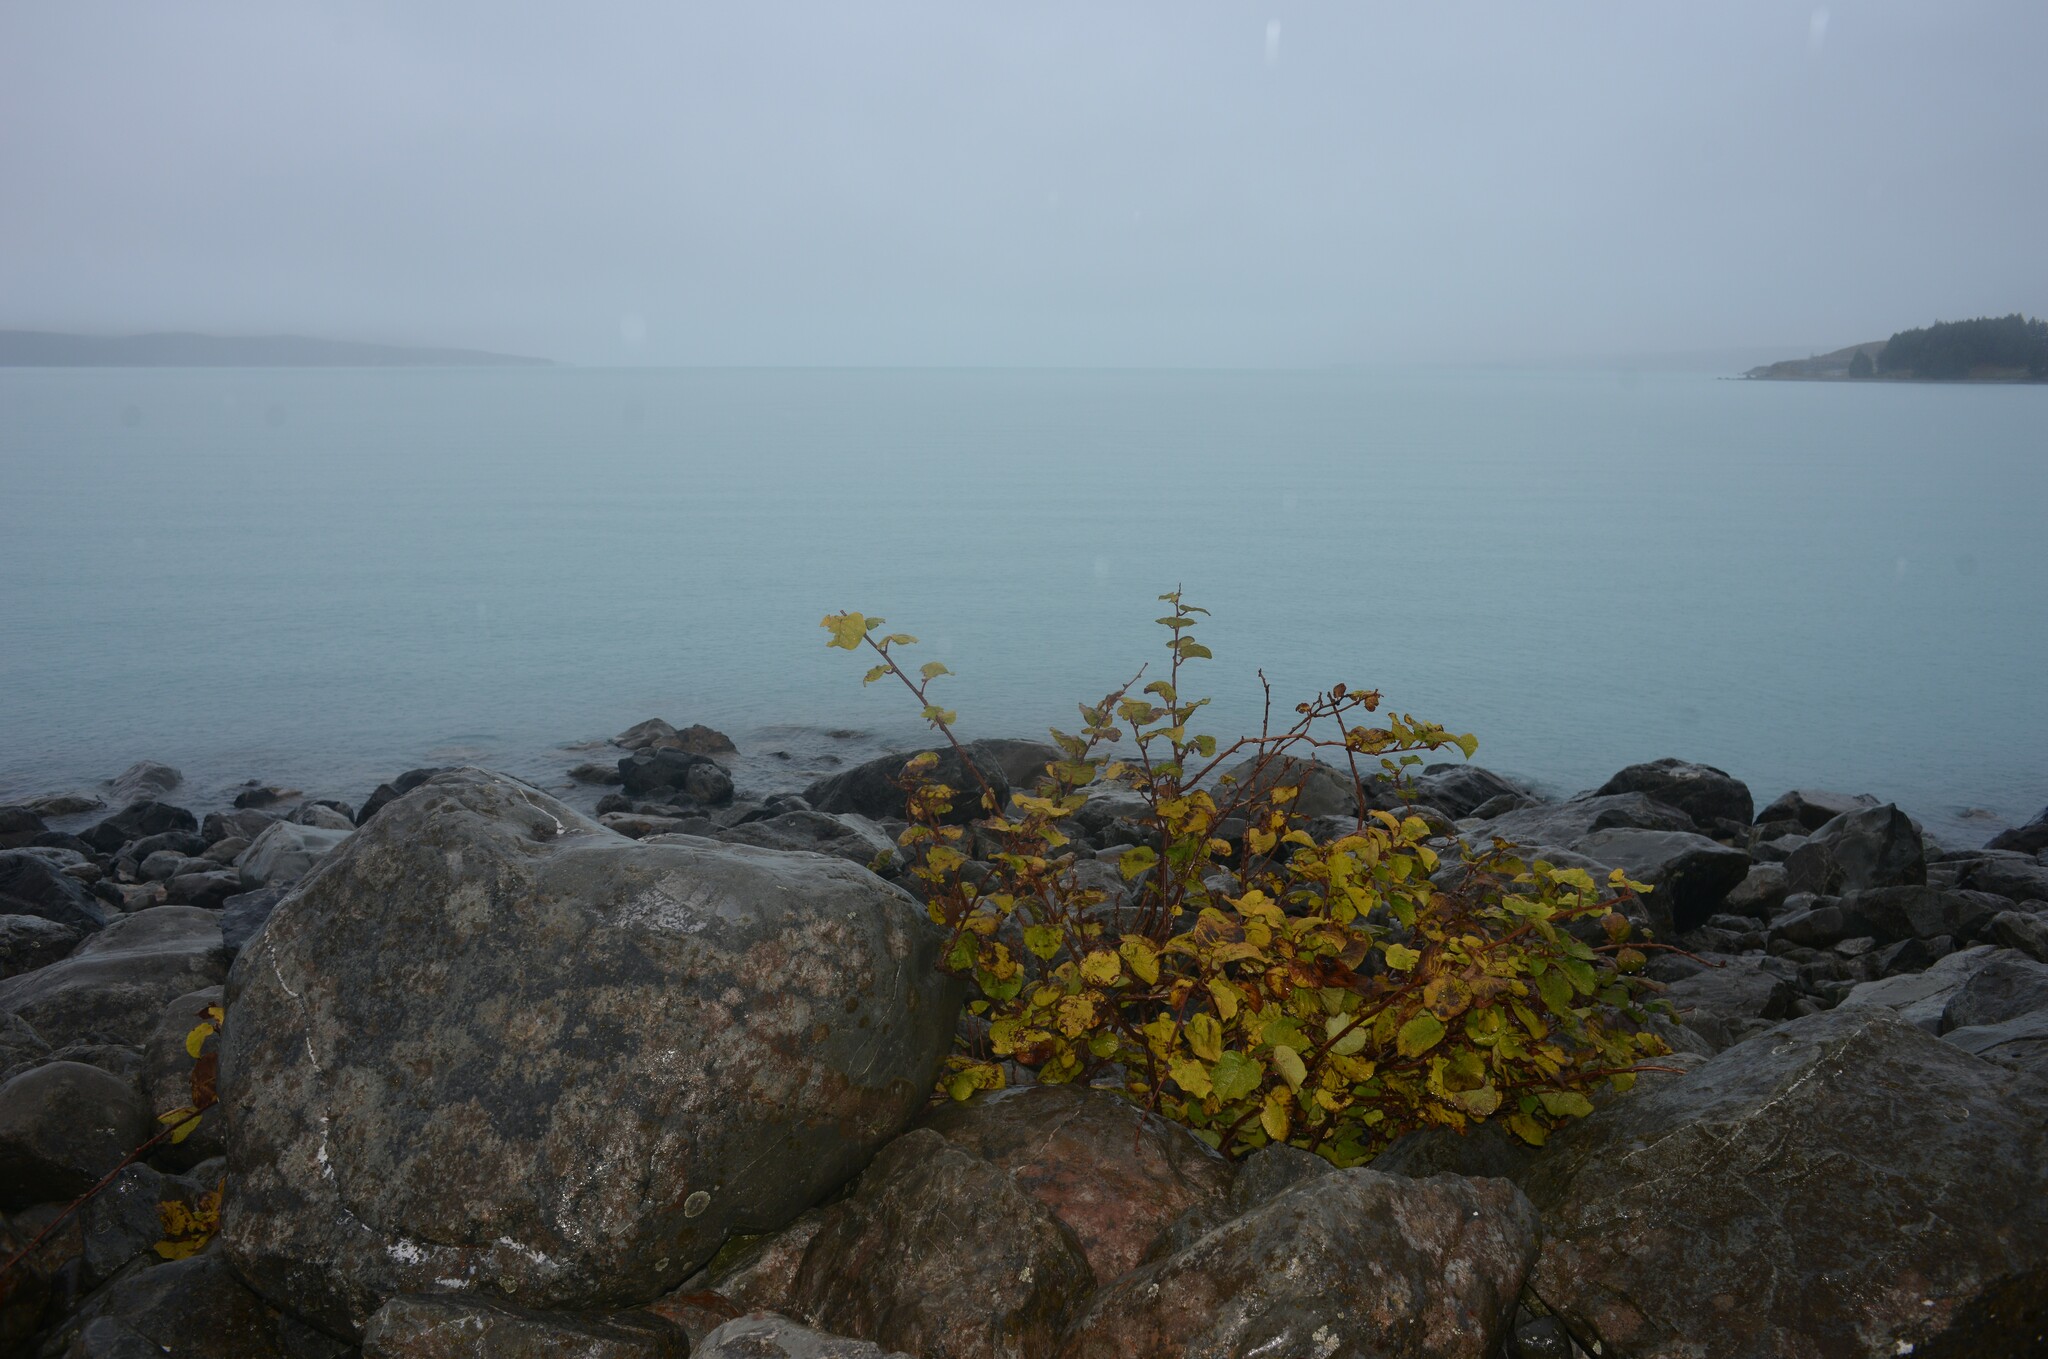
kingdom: Plantae
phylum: Tracheophyta
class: Magnoliopsida
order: Ericales
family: Actinidiaceae
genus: Actinidia
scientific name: Actinidia chinensis
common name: Kiwi
